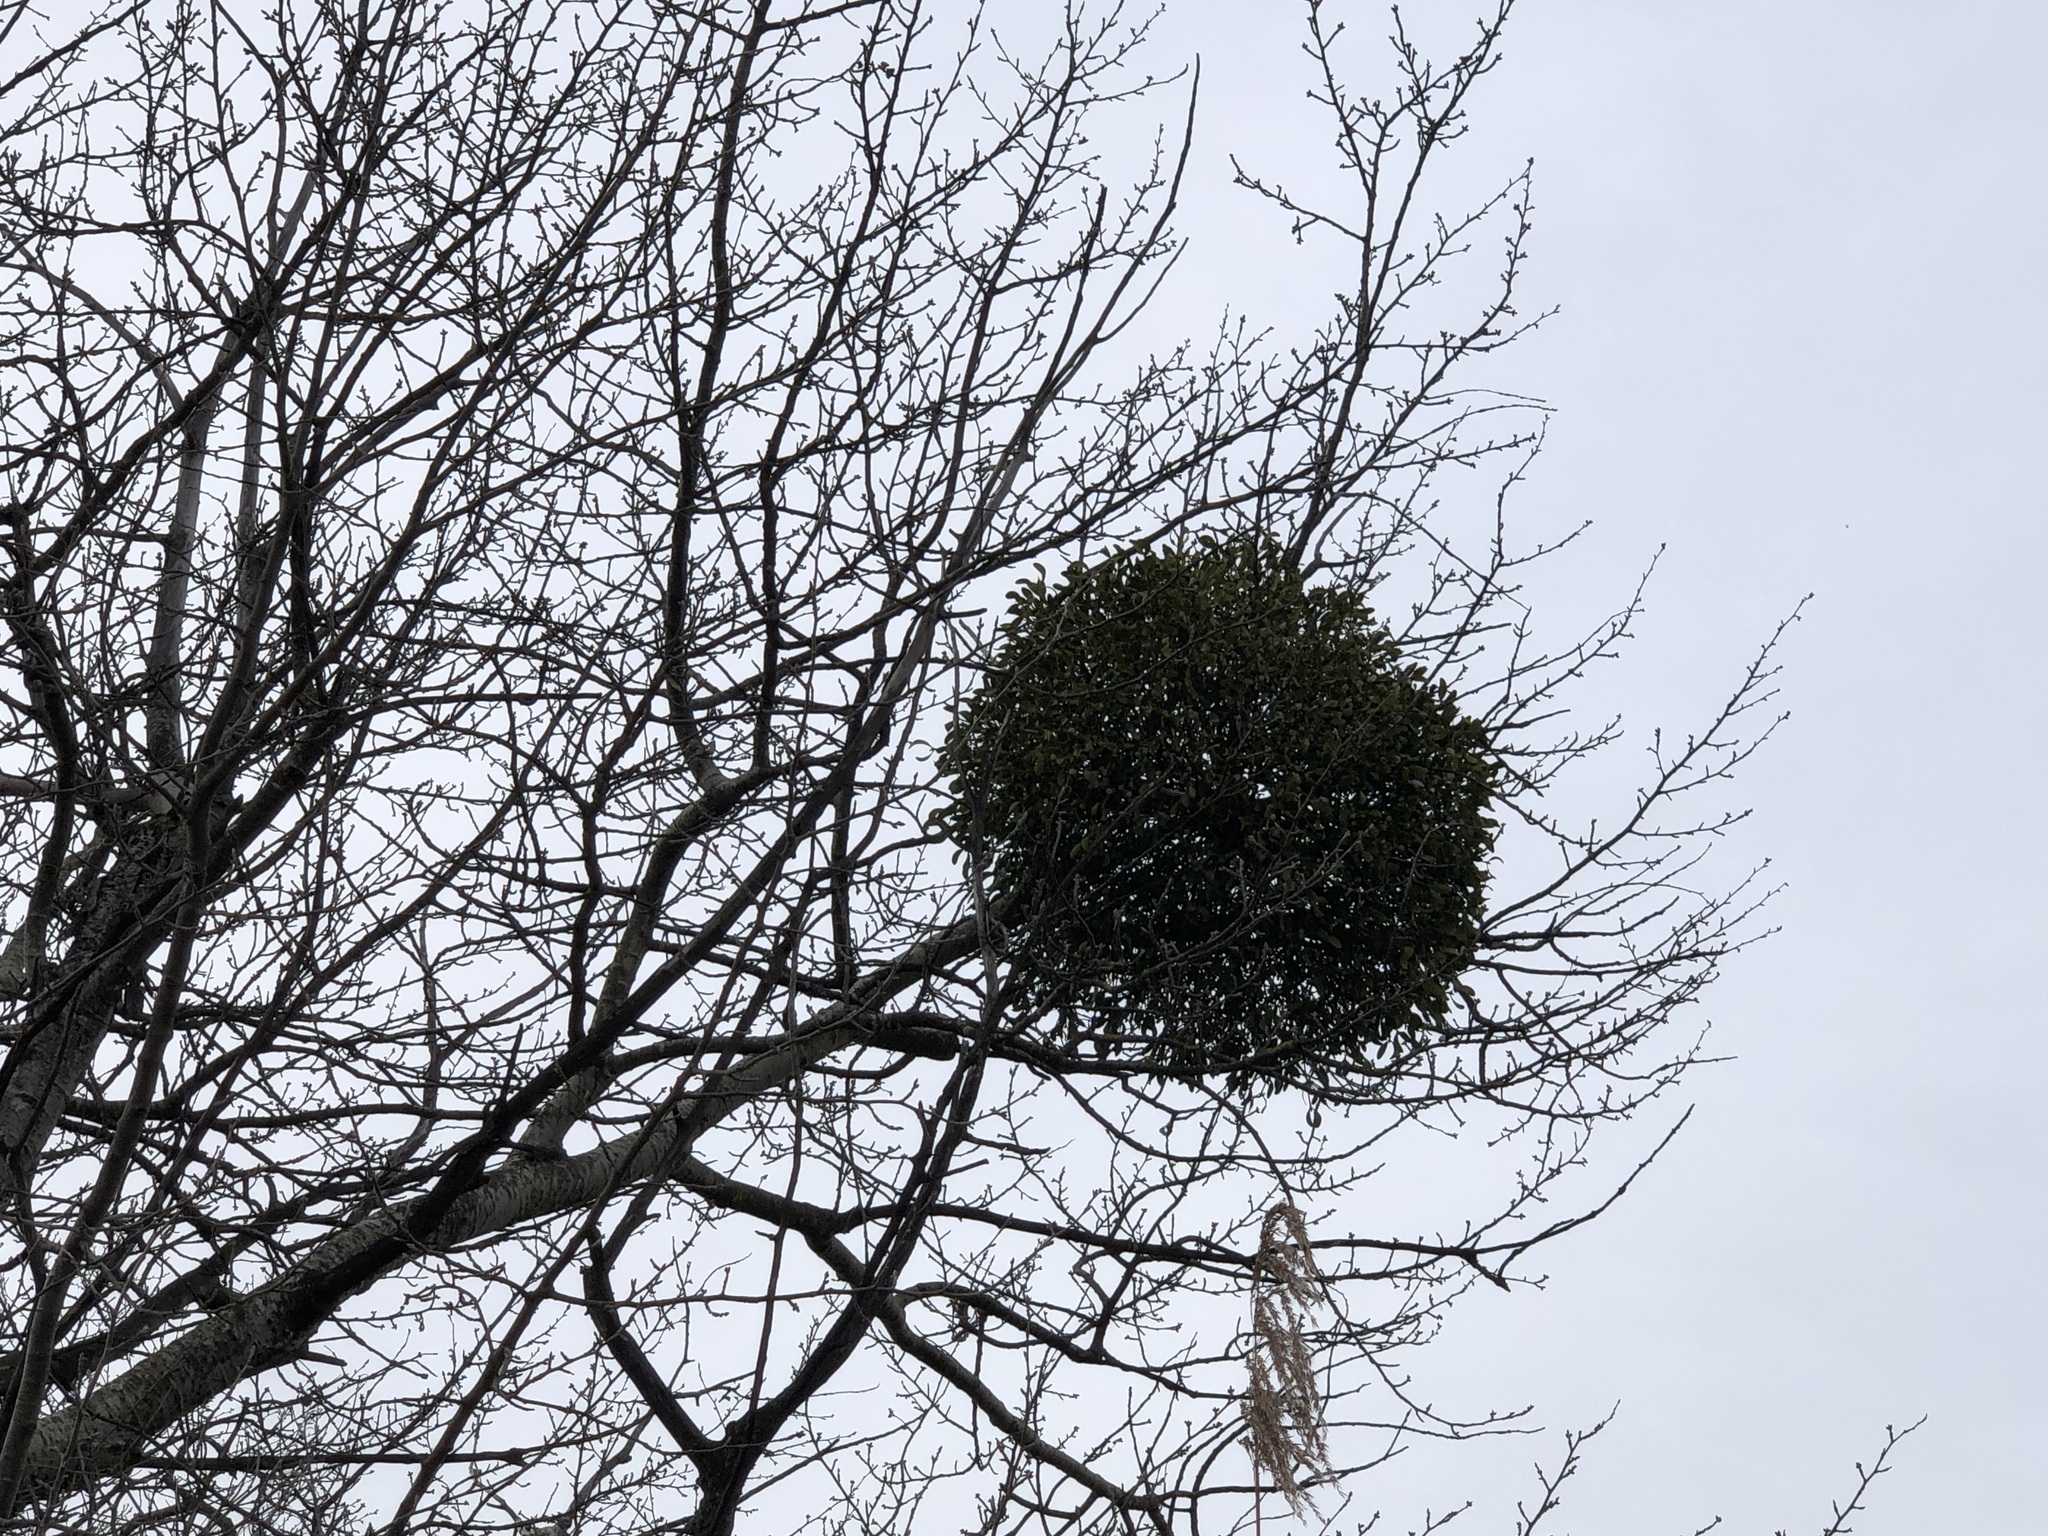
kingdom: Plantae
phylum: Tracheophyta
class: Magnoliopsida
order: Santalales
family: Viscaceae
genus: Viscum
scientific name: Viscum album
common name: Mistletoe
